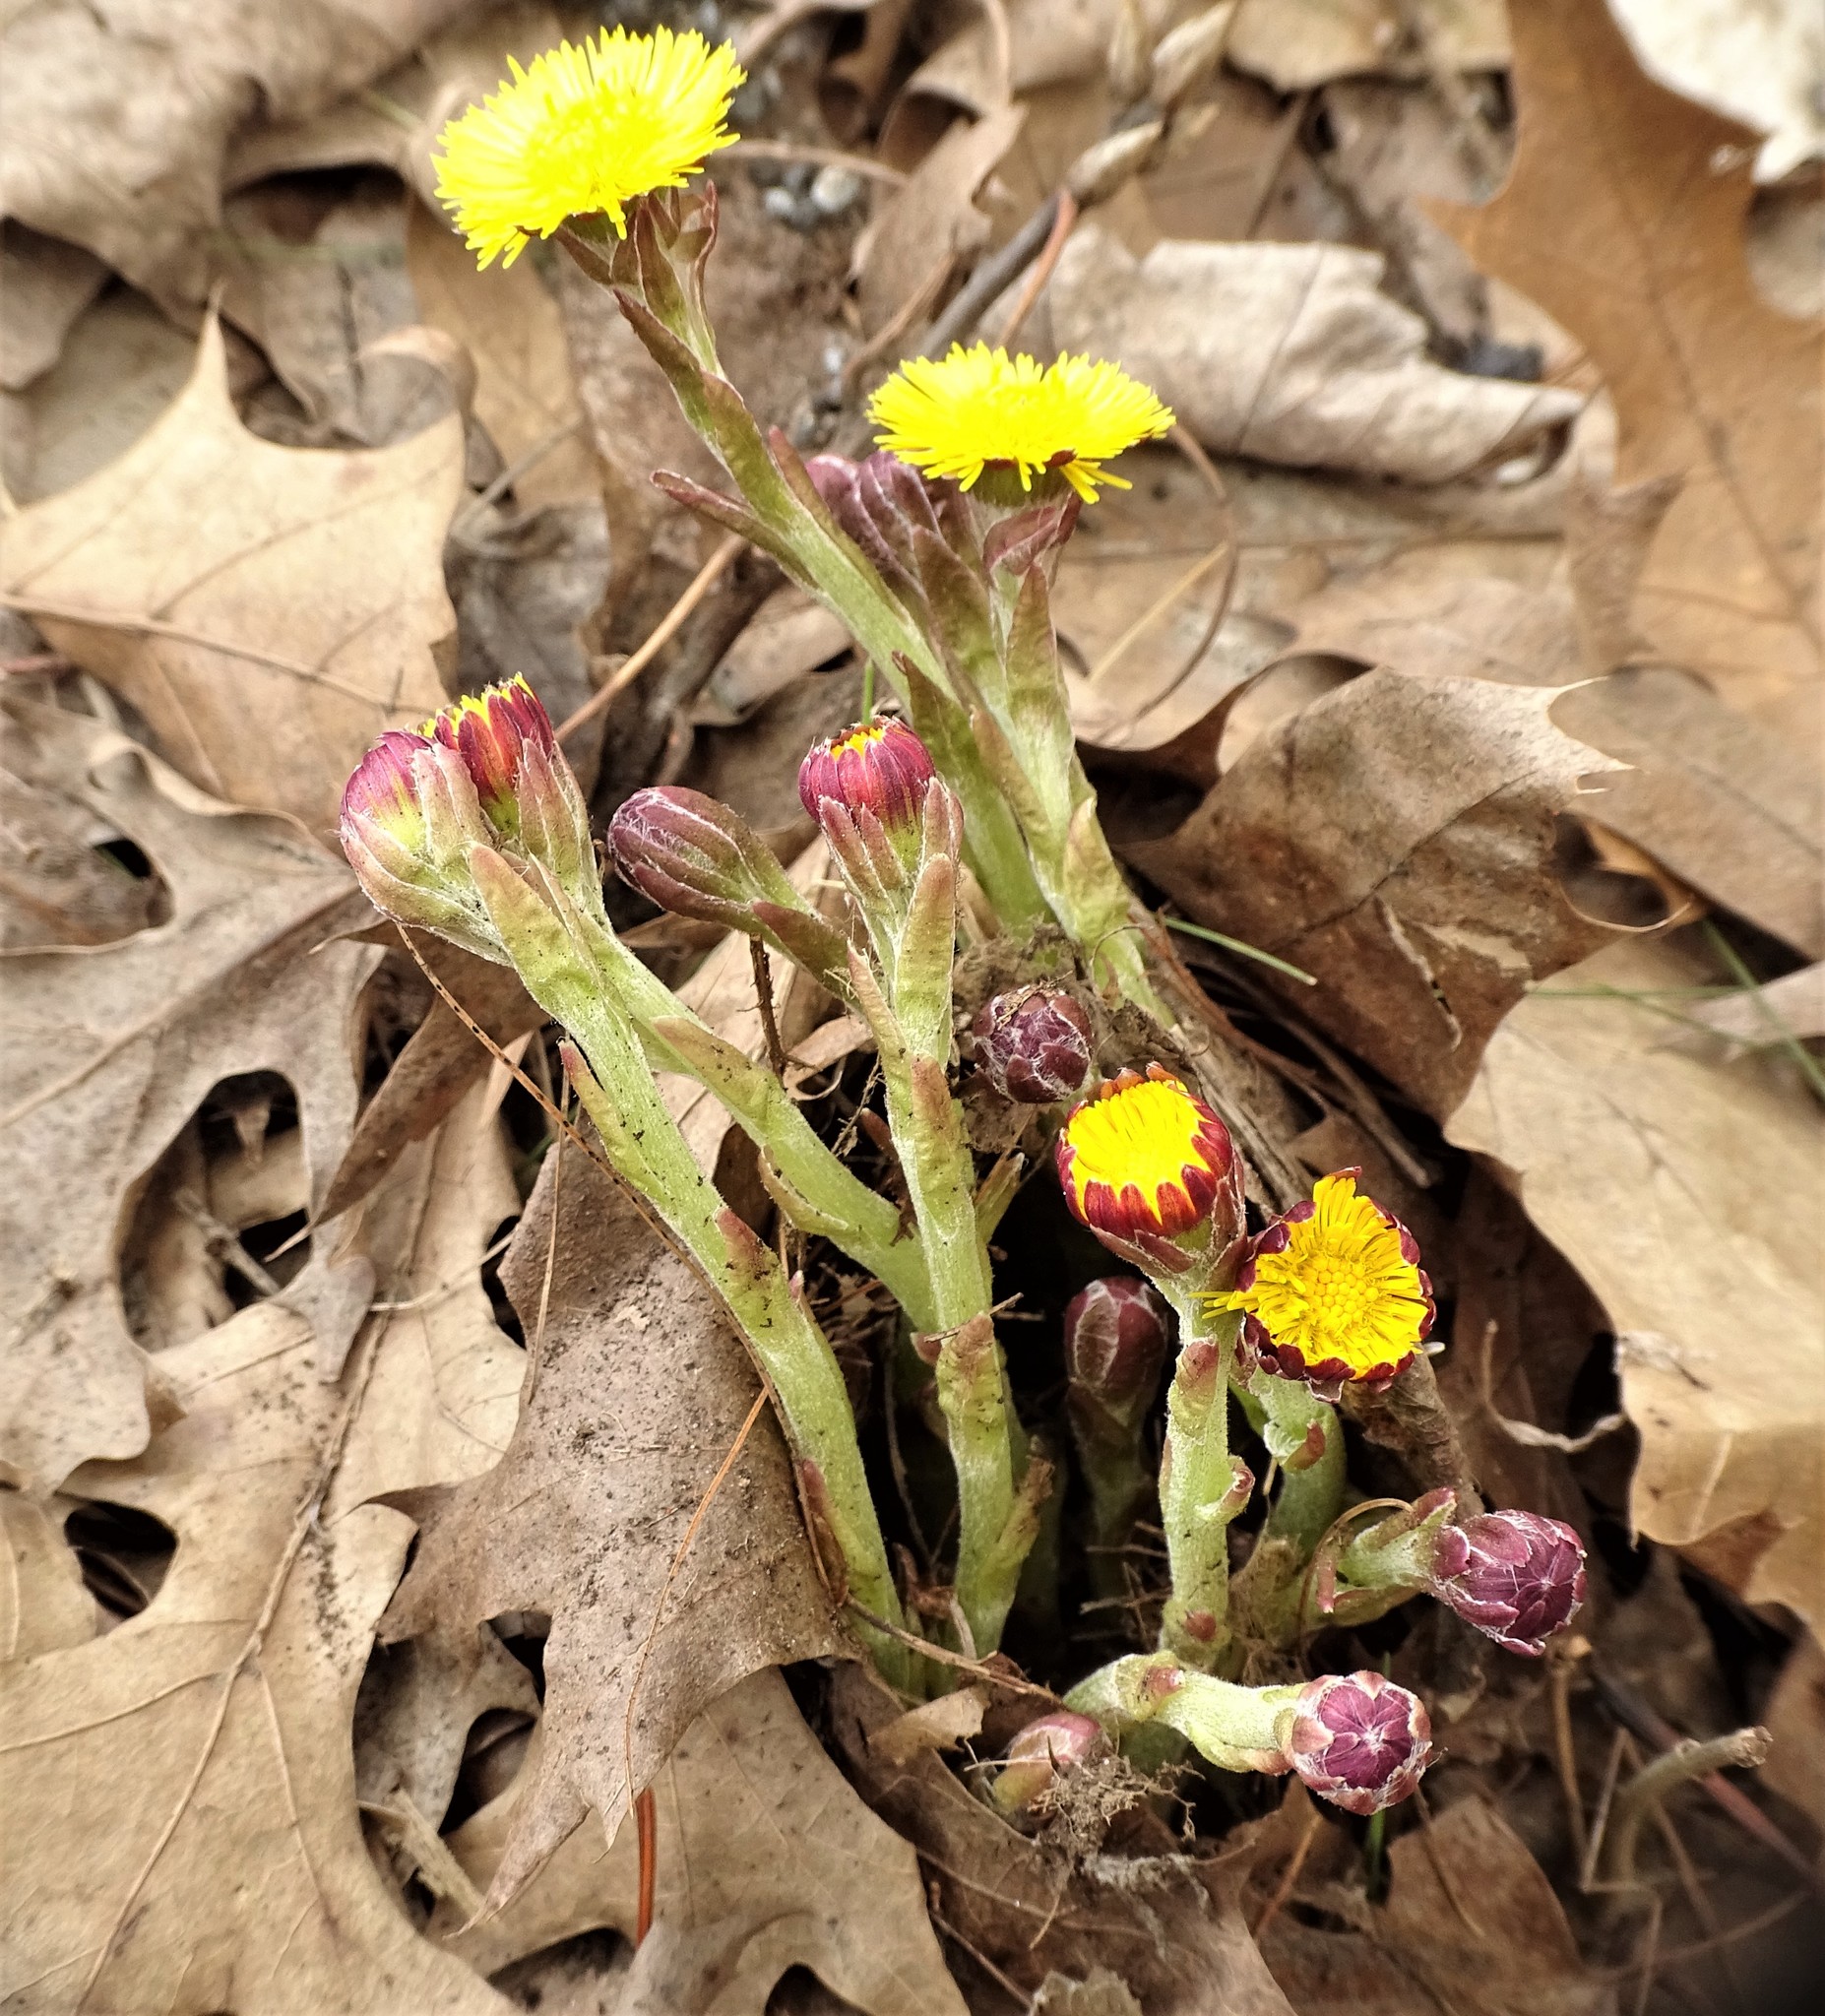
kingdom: Plantae
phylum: Tracheophyta
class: Magnoliopsida
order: Asterales
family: Asteraceae
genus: Tussilago
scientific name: Tussilago farfara
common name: Coltsfoot
